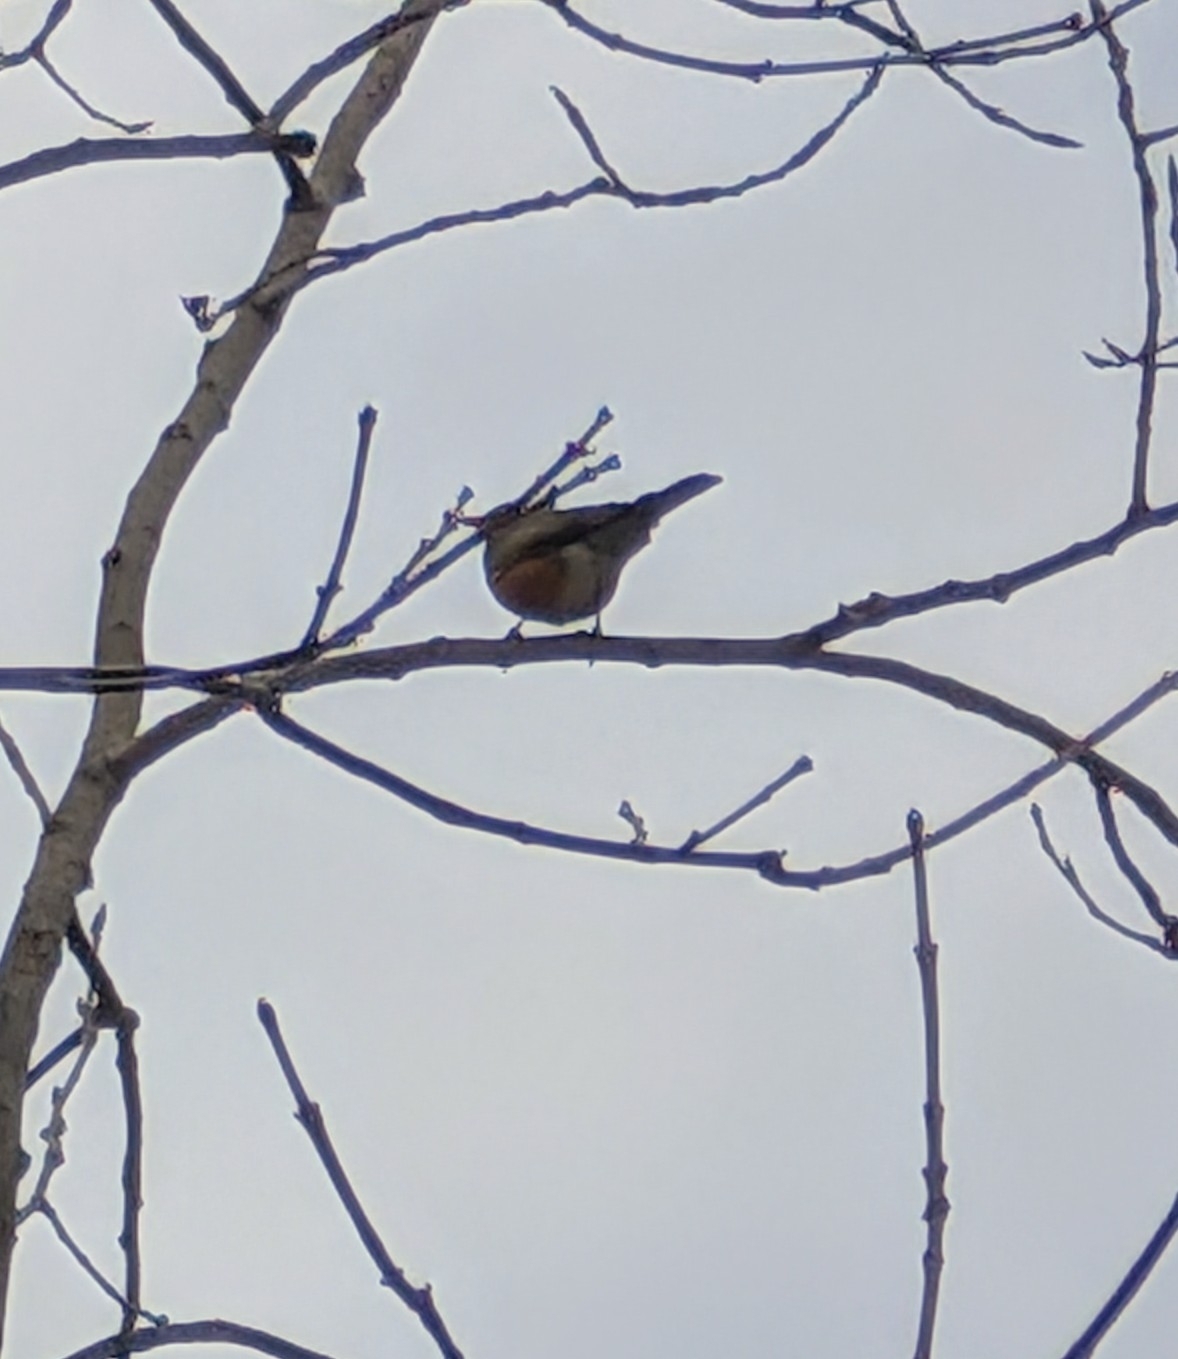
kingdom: Animalia
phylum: Chordata
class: Aves
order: Passeriformes
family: Turdidae
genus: Turdus
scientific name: Turdus migratorius
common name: American robin
